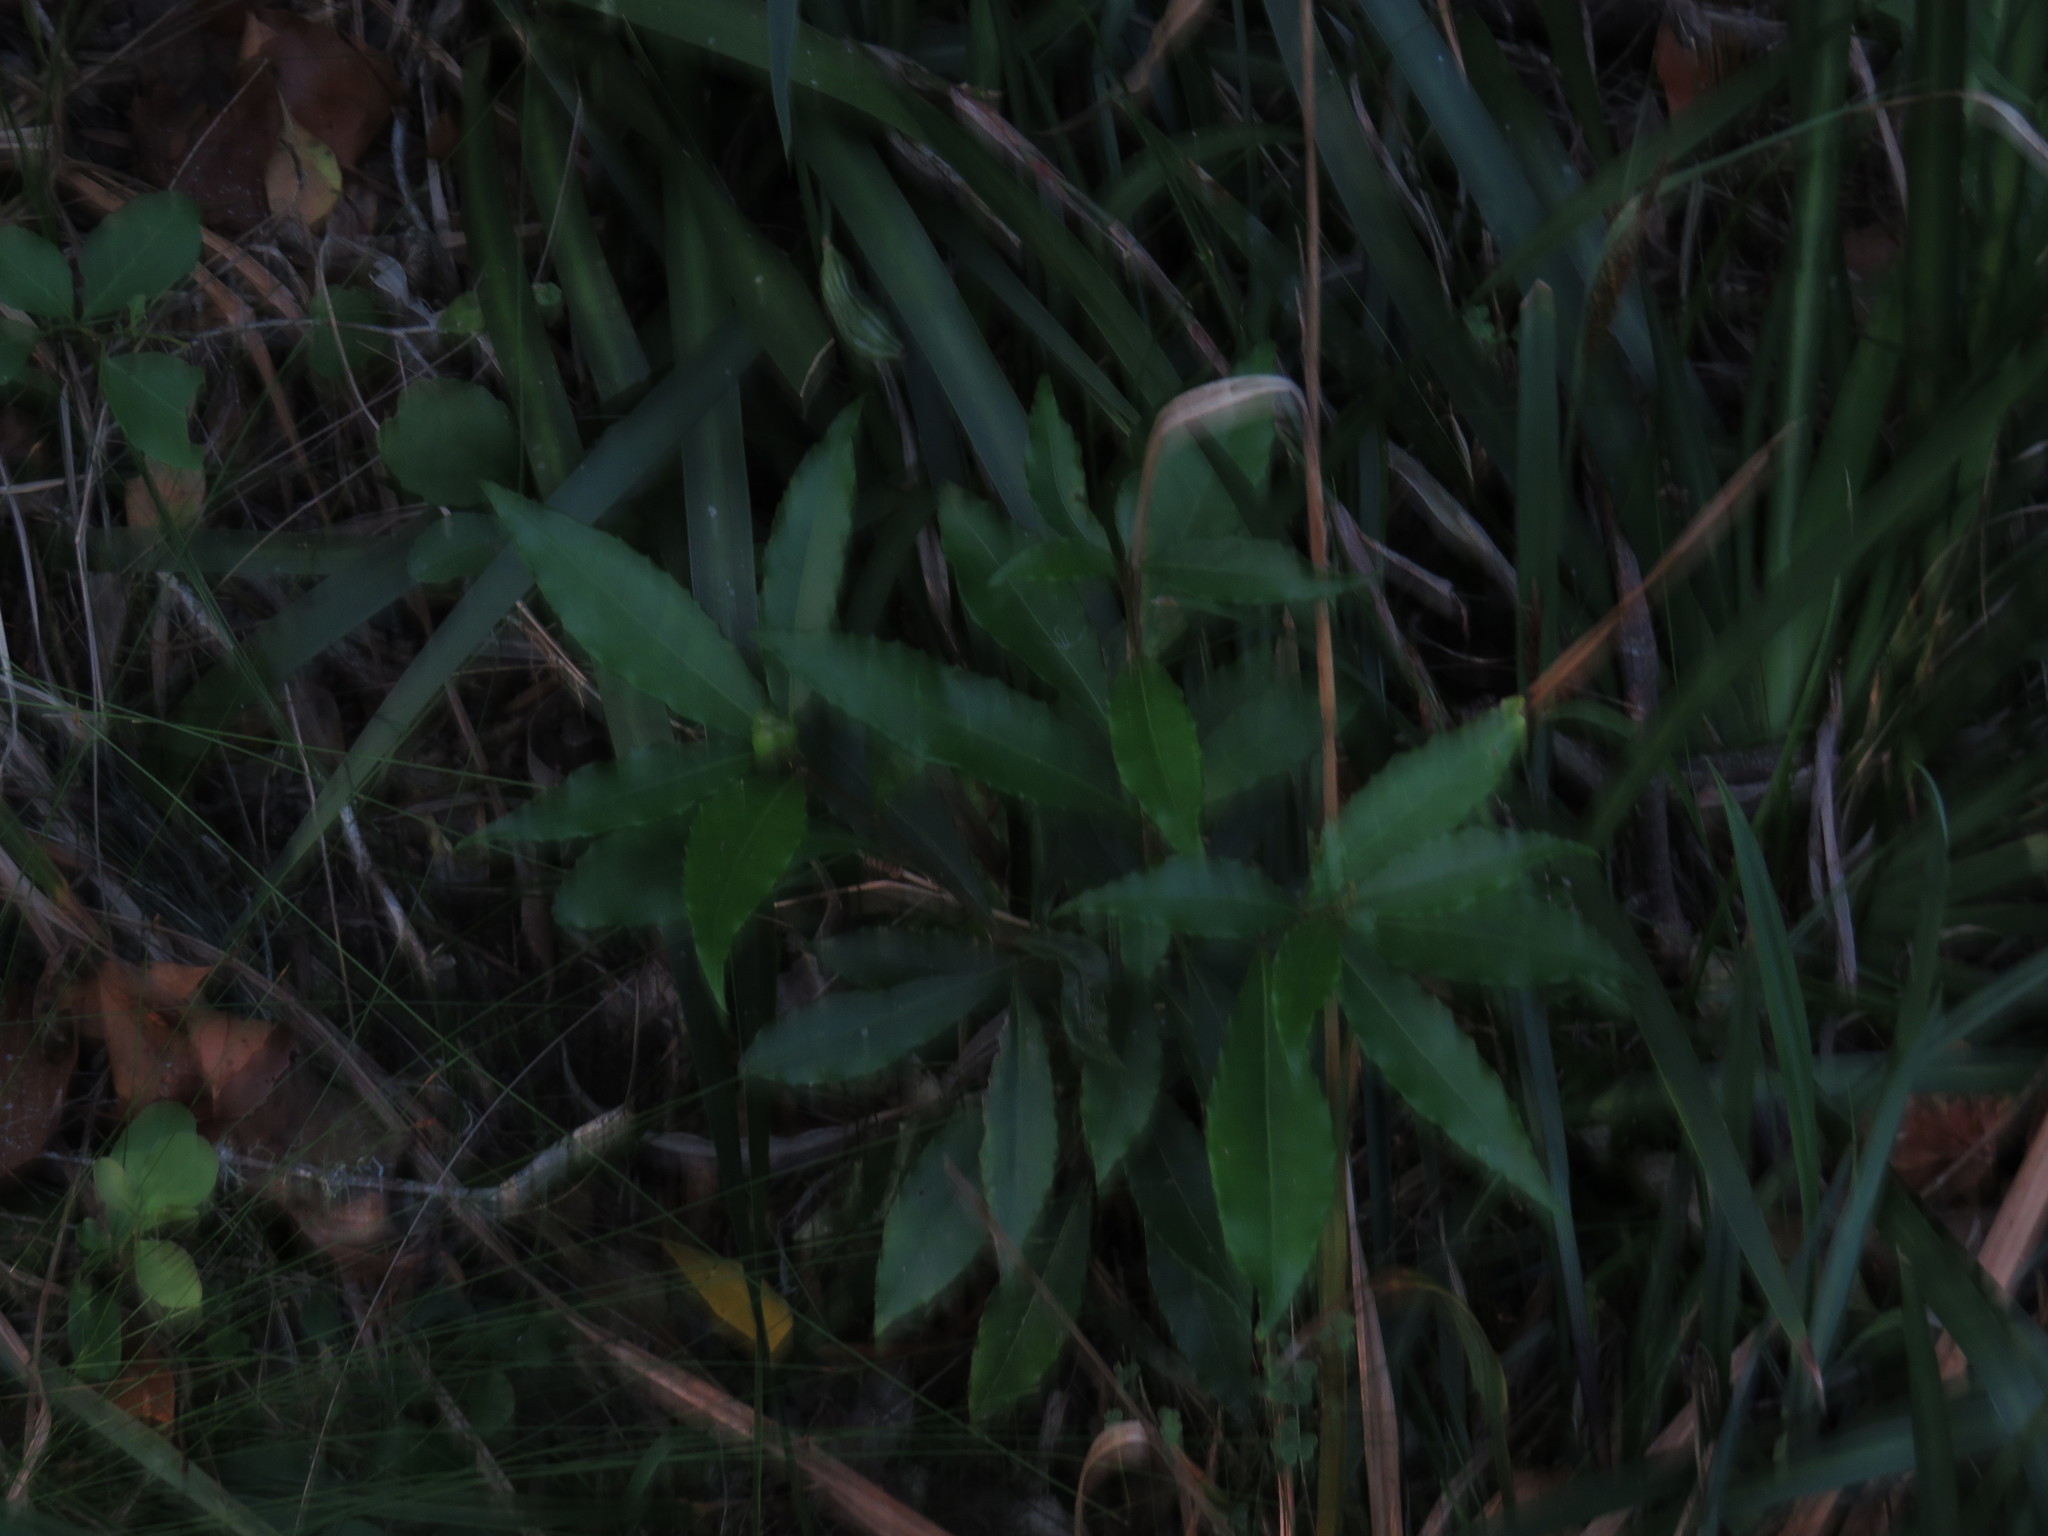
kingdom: Plantae
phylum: Tracheophyta
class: Magnoliopsida
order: Sapindales
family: Rutaceae
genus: Vepris
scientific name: Vepris lanceolata
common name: White ironwood
